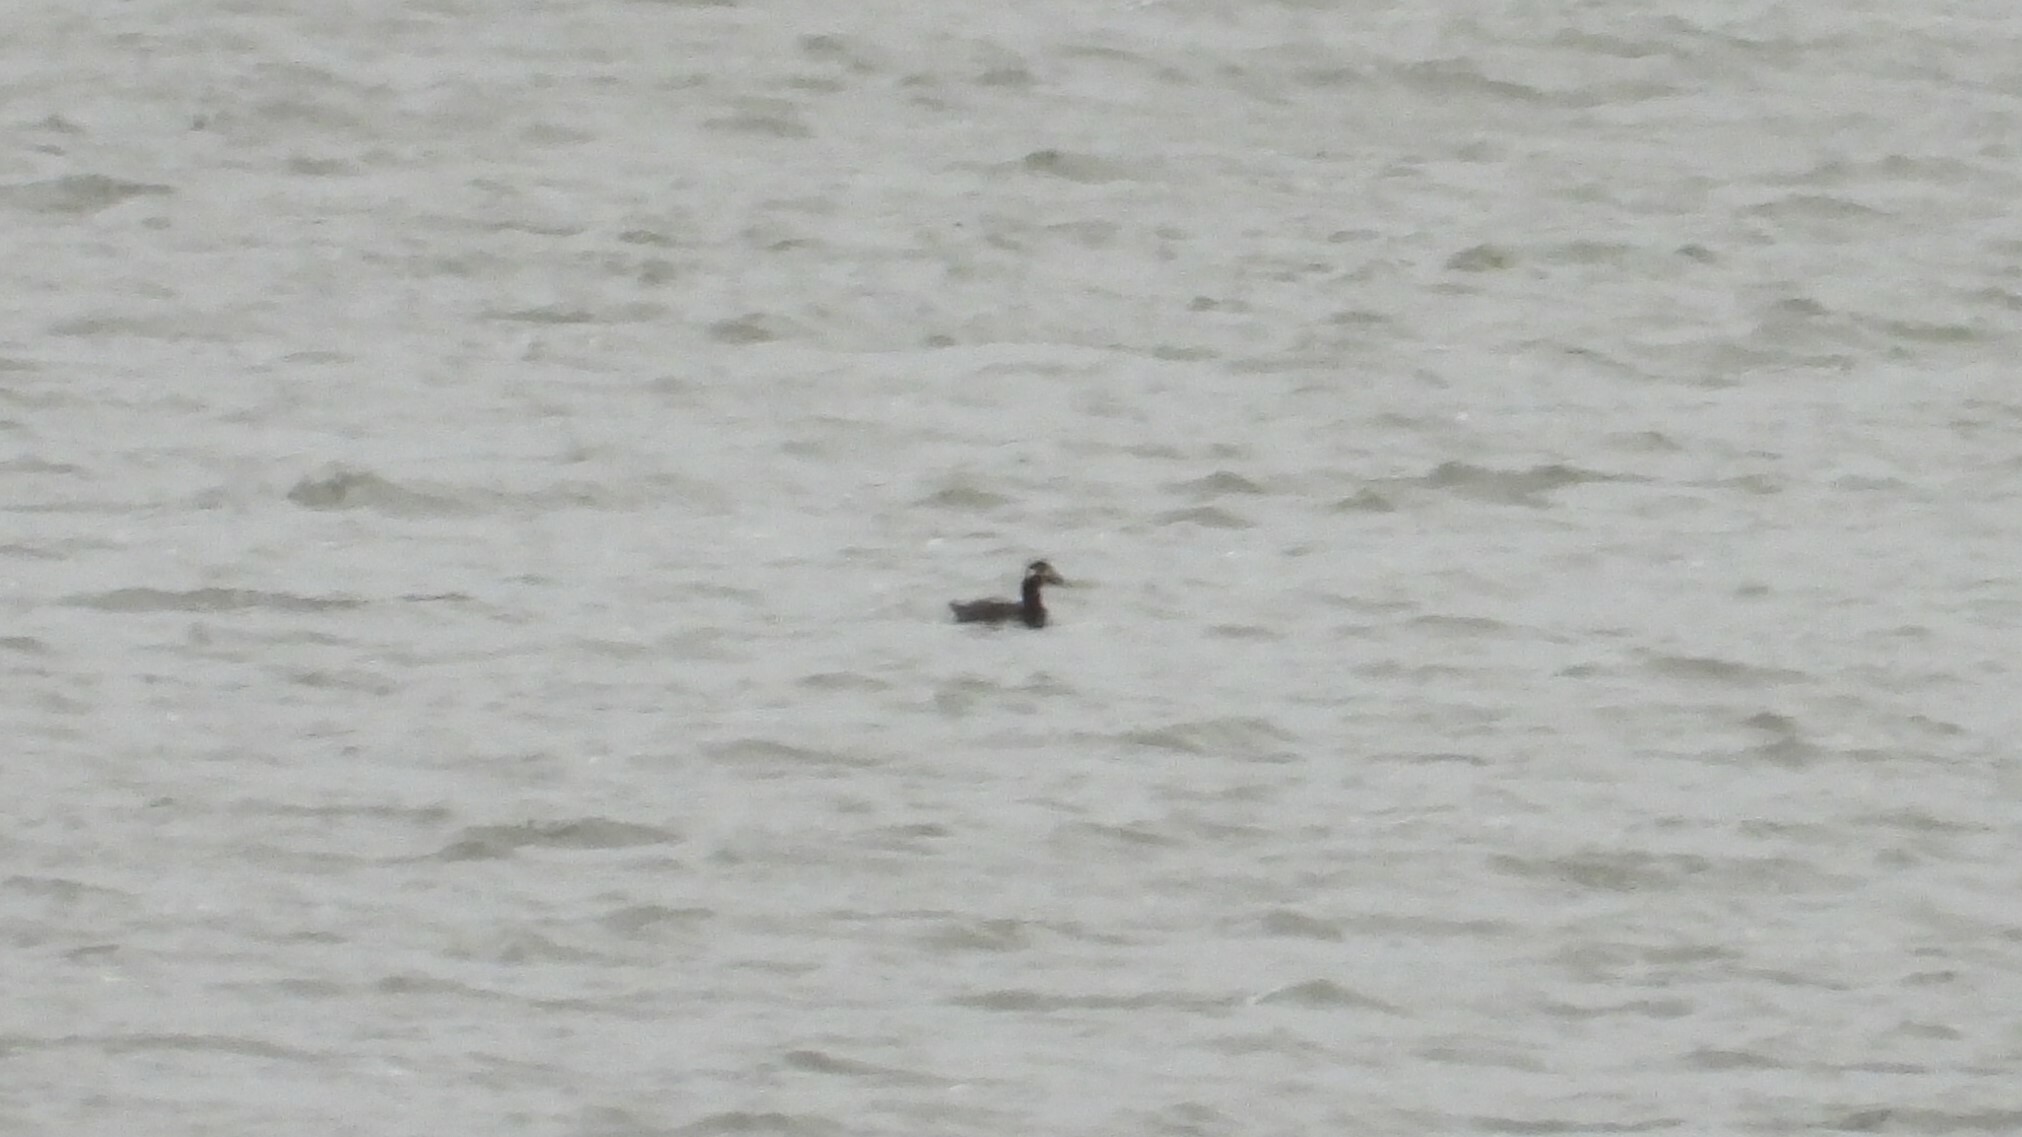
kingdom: Animalia
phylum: Chordata
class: Aves
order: Anseriformes
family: Anatidae
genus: Melanitta
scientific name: Melanitta deglandi
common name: White-winged scoter
